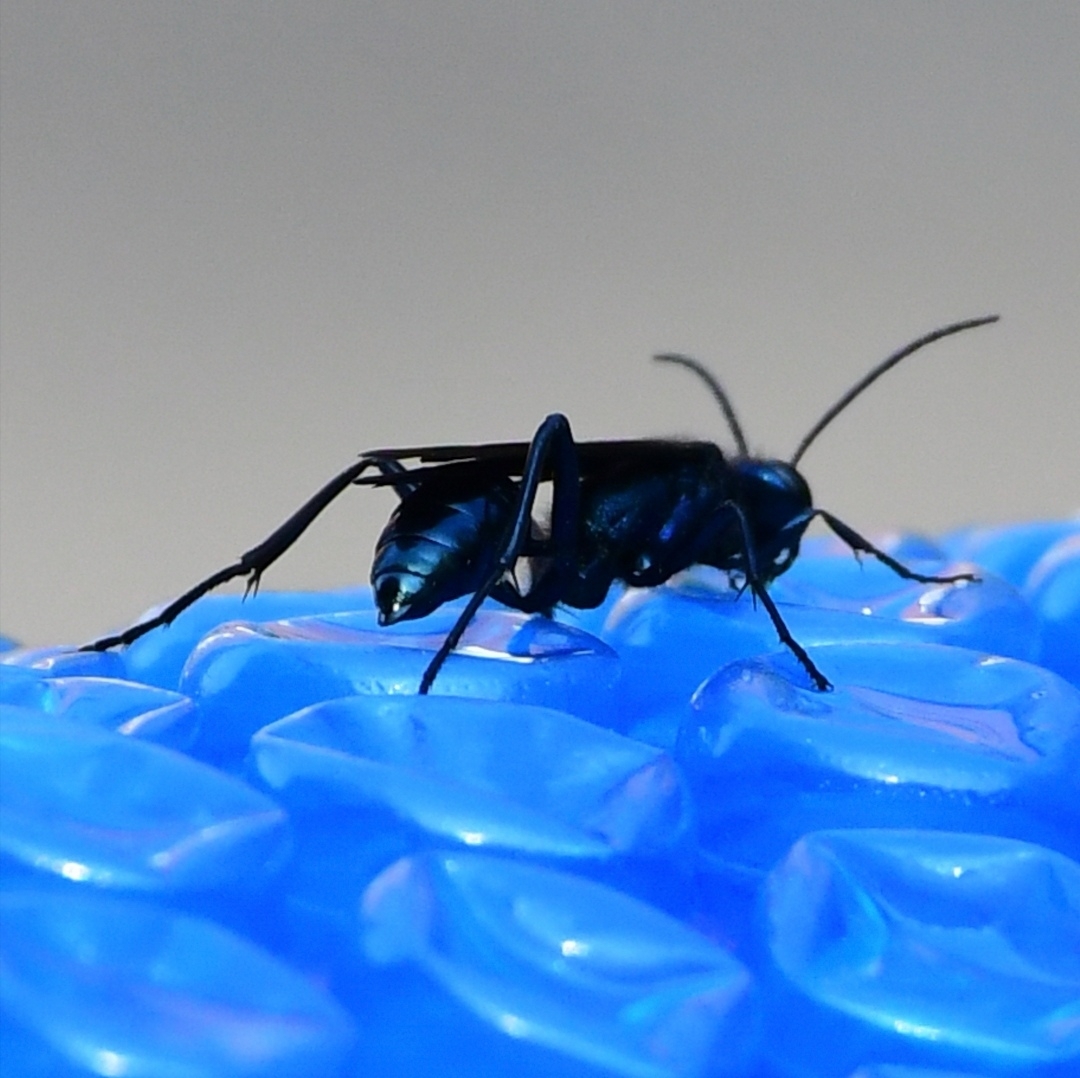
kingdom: Animalia
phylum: Arthropoda
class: Insecta
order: Hymenoptera
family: Sphecidae
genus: Chalybion
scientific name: Chalybion californicum
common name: Mud dauber
